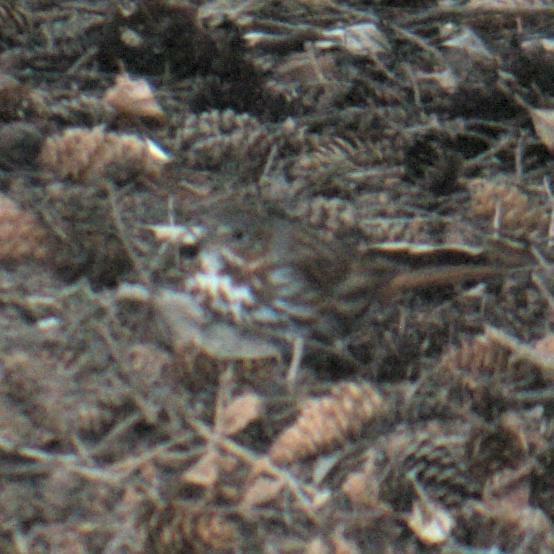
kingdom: Animalia
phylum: Chordata
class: Aves
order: Passeriformes
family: Passerellidae
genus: Passerella
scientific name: Passerella iliaca
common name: Fox sparrow
